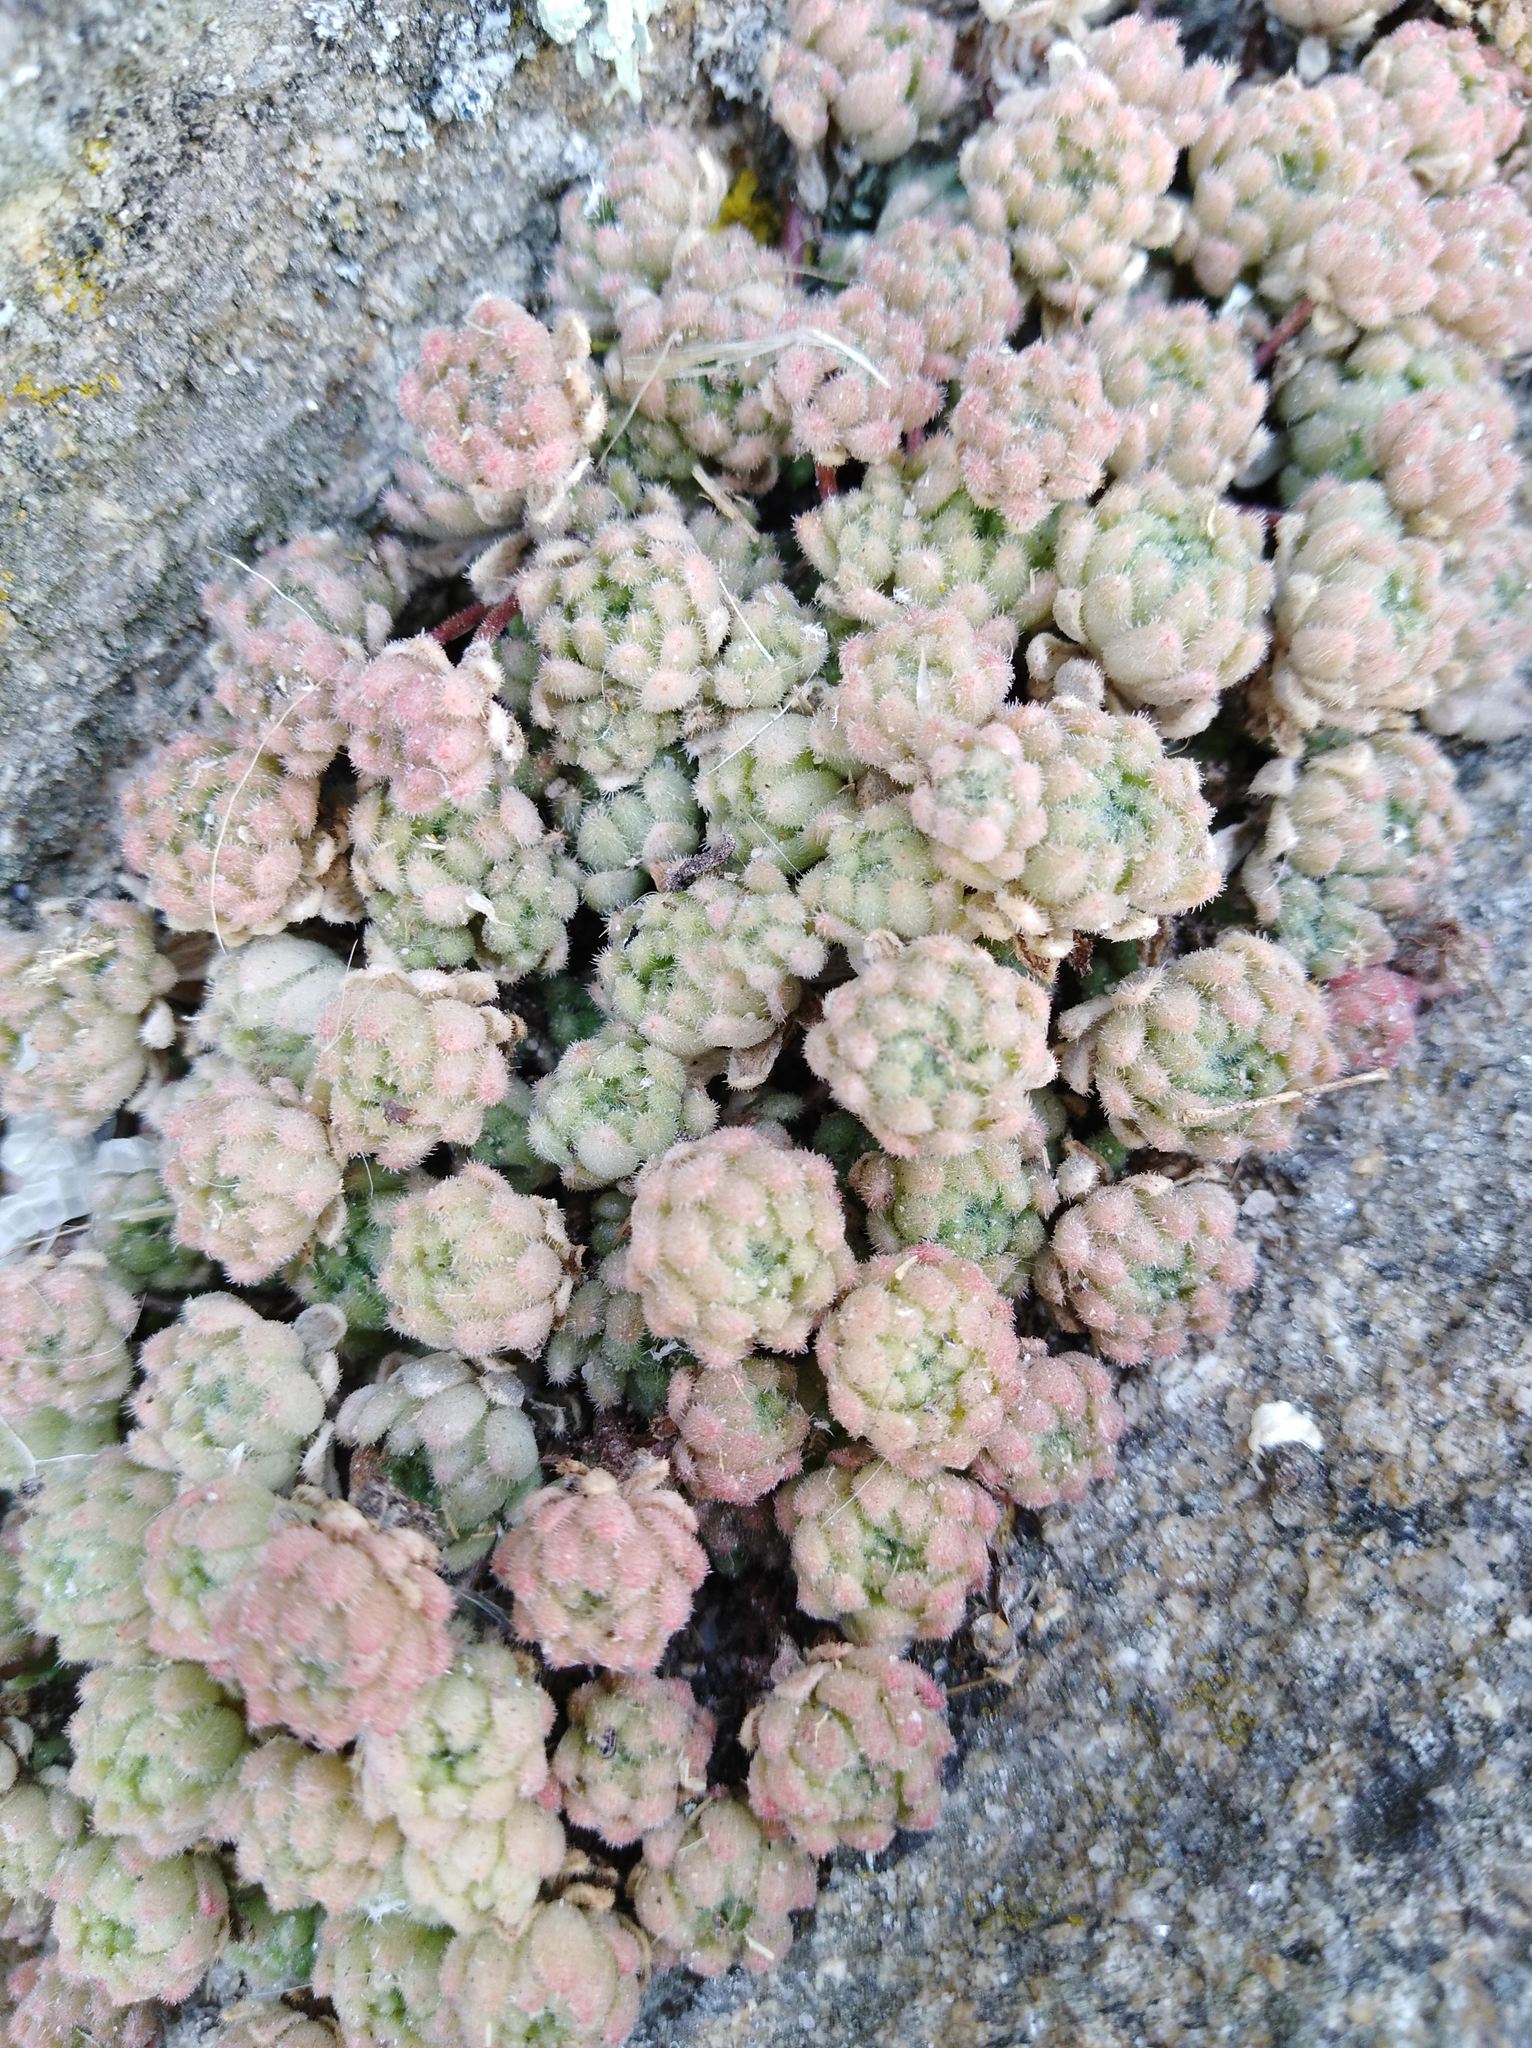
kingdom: Plantae
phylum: Tracheophyta
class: Magnoliopsida
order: Saxifragales
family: Crassulaceae
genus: Sedum
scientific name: Sedum hirsutum
